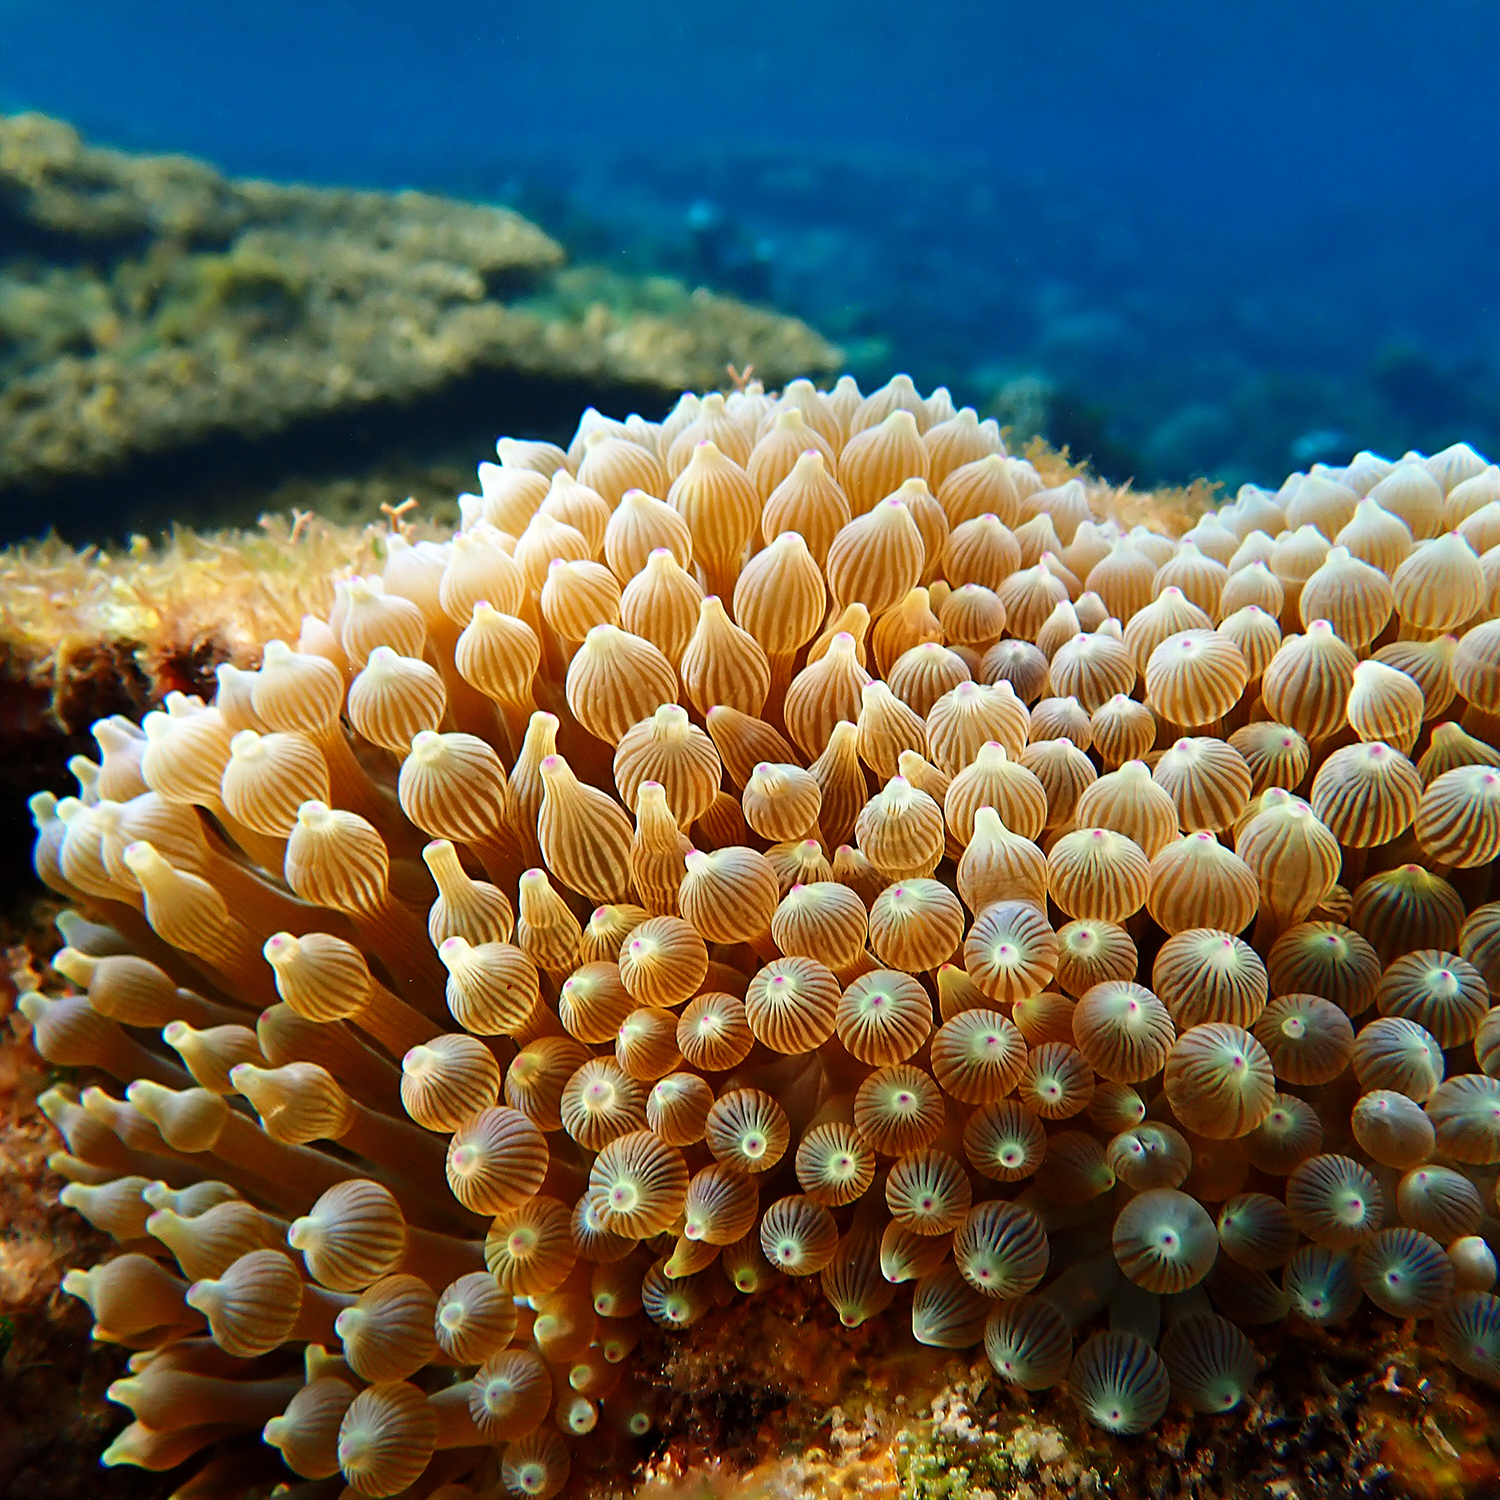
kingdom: Animalia
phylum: Cnidaria
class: Anthozoa
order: Actiniaria
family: Actiniidae
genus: Entacmaea
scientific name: Entacmaea quadricolor
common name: Bulb tentacle sea anemone
